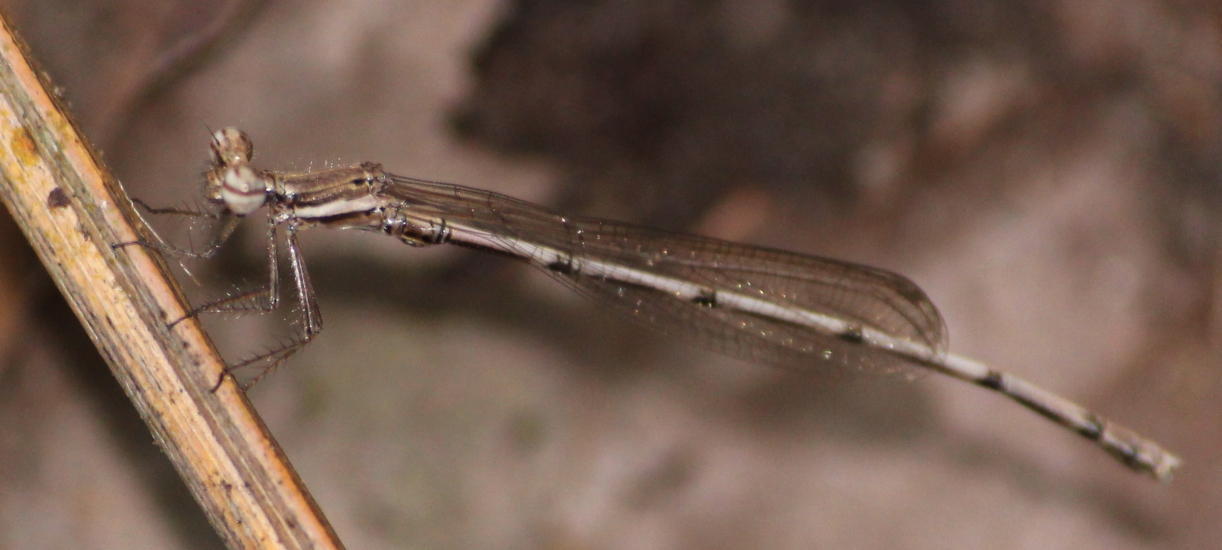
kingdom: Animalia
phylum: Arthropoda
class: Insecta
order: Odonata
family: Platycnemididae
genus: Elattoneura
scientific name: Elattoneura glauca
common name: Common threadtail
